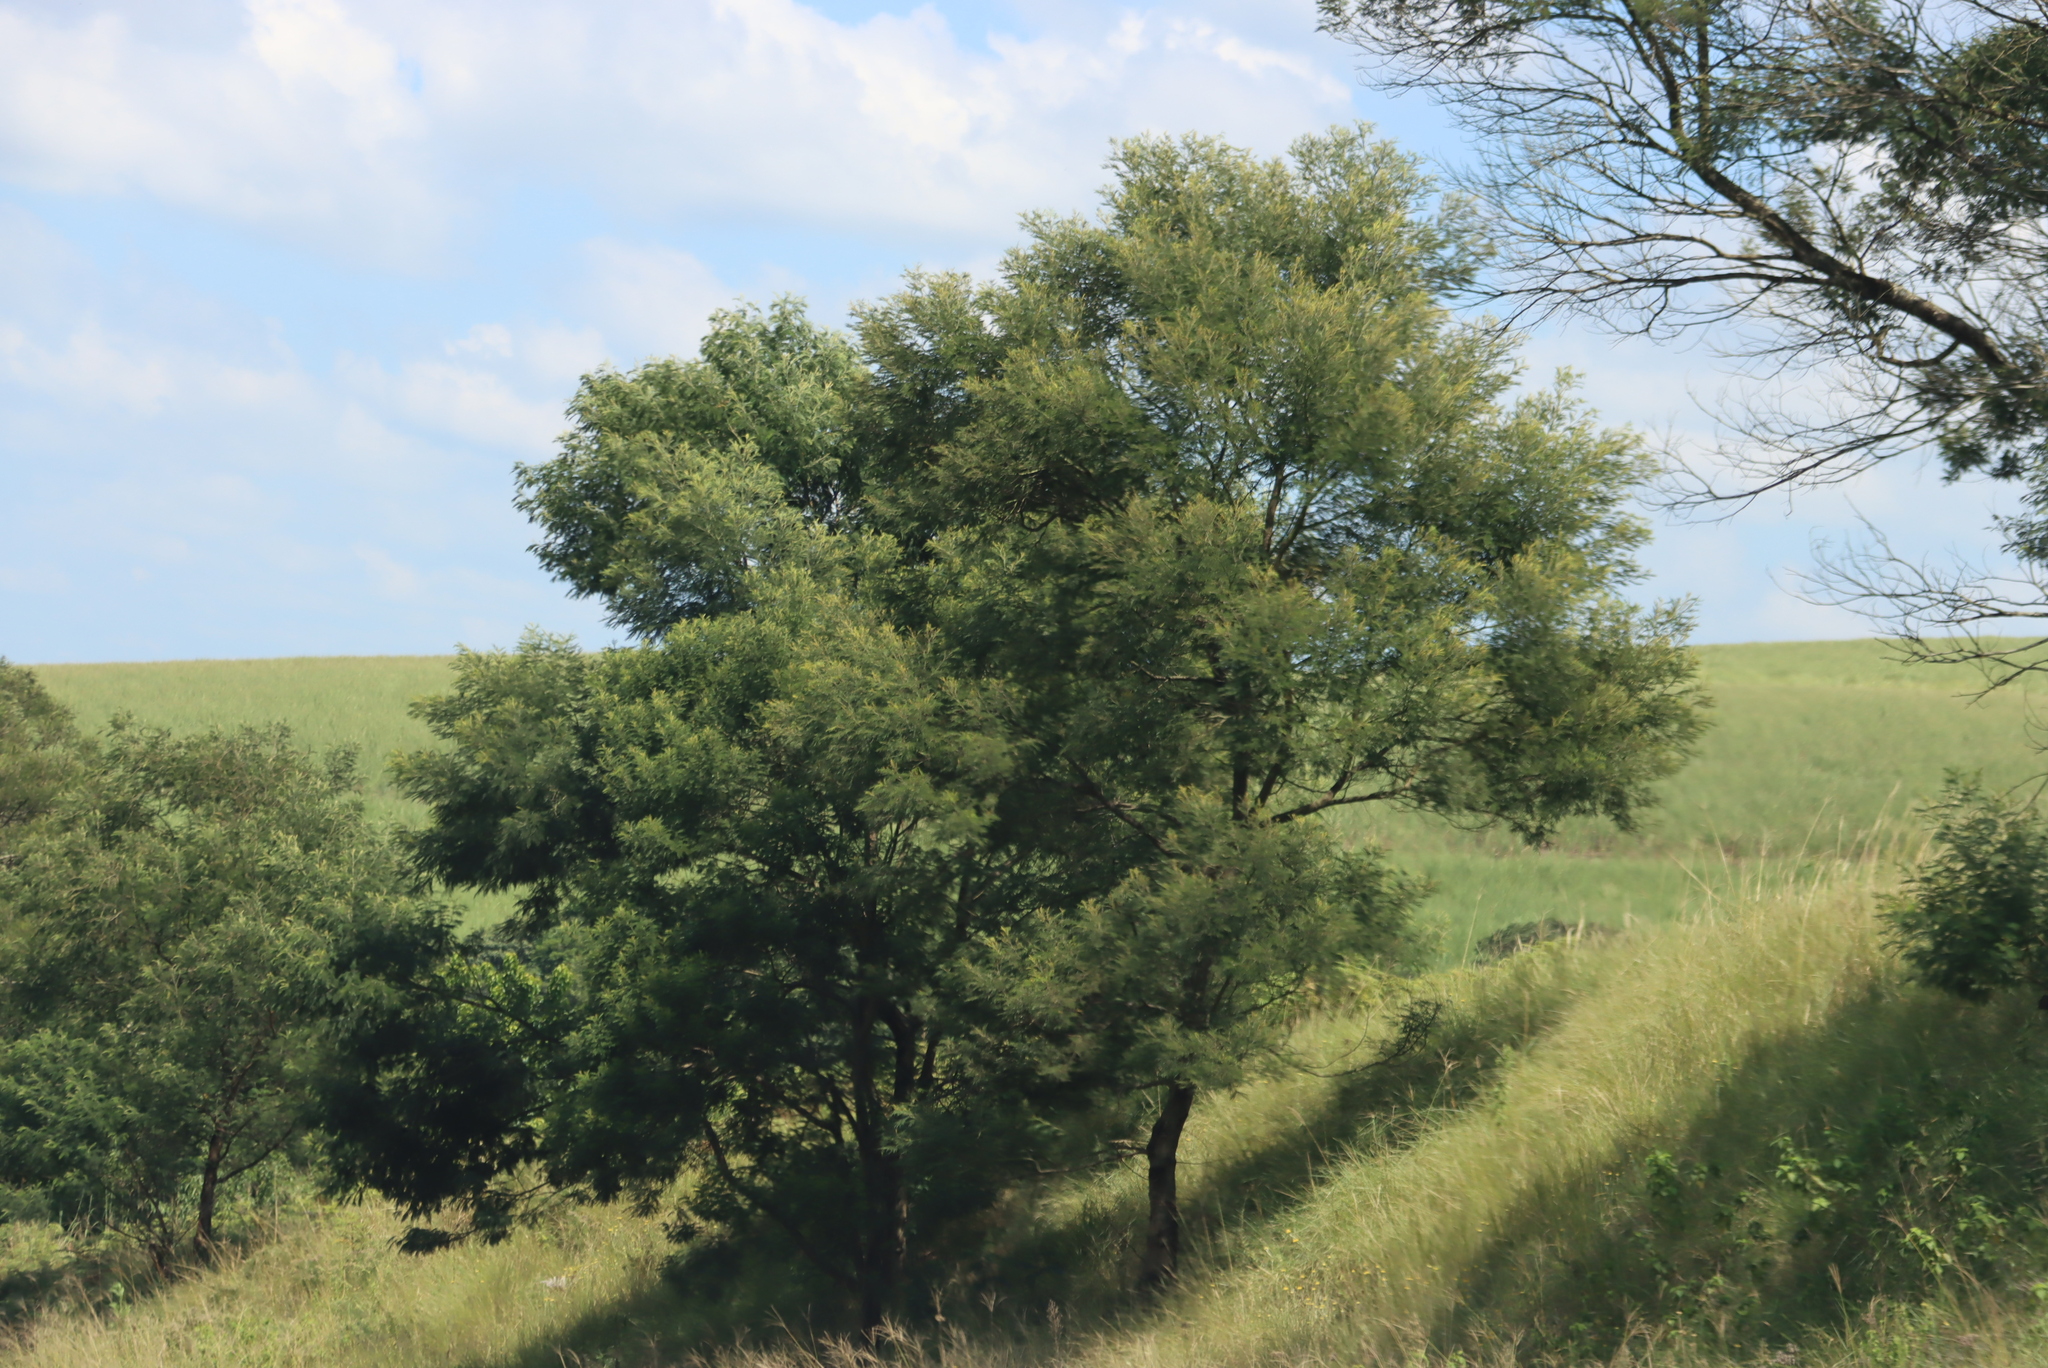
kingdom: Plantae
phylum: Tracheophyta
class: Magnoliopsida
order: Fabales
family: Fabaceae
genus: Acacia
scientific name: Acacia mearnsii
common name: Black wattle
